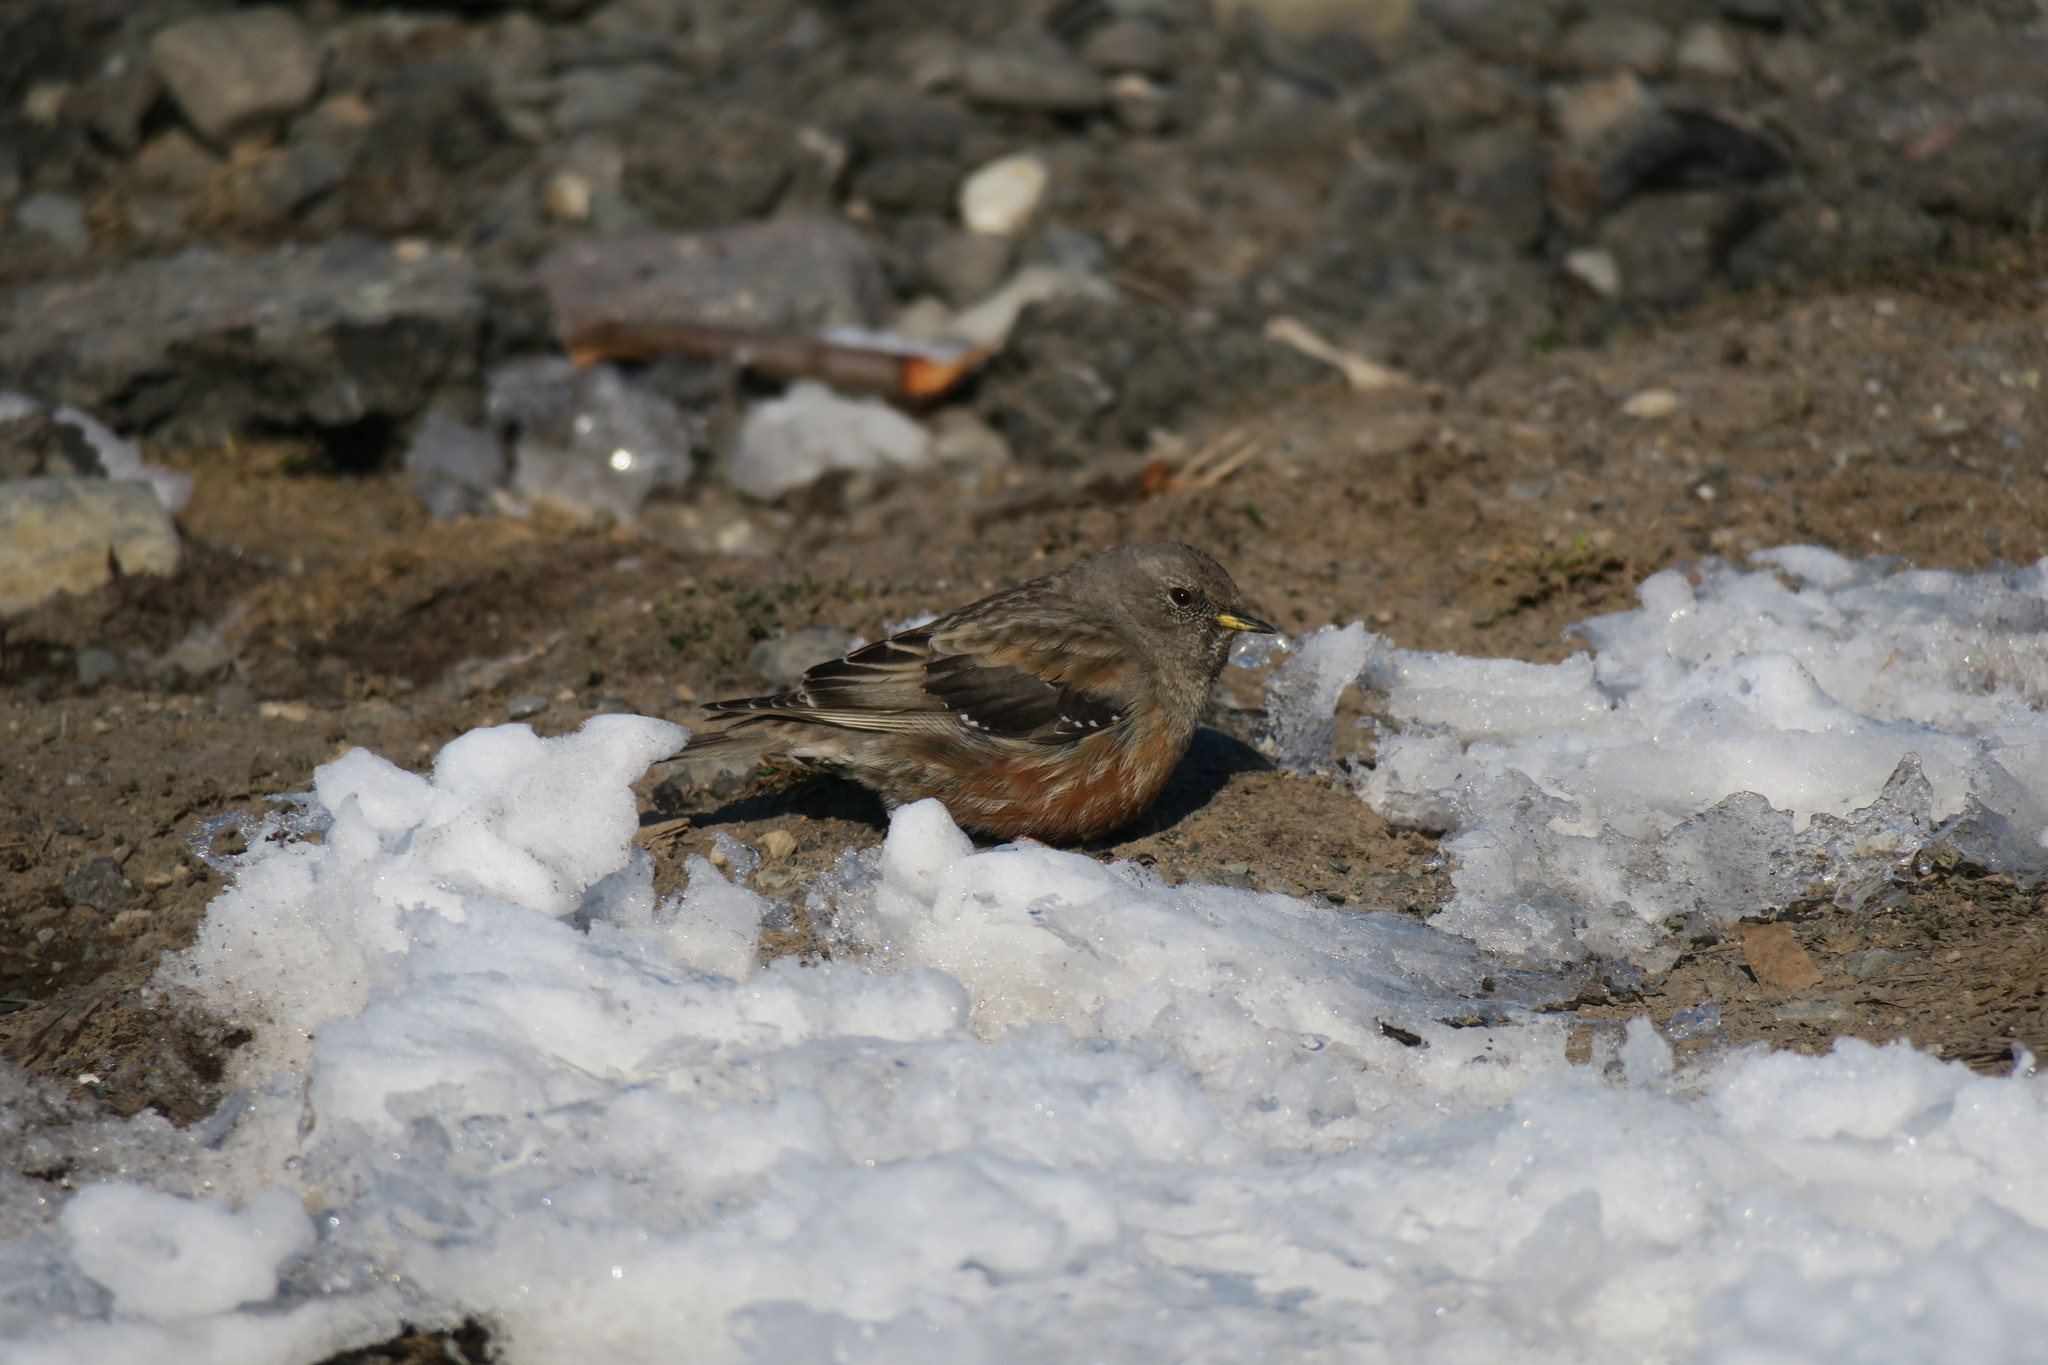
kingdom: Animalia
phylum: Chordata
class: Aves
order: Passeriformes
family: Prunellidae
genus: Prunella
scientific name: Prunella collaris
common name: Alpine accentor
